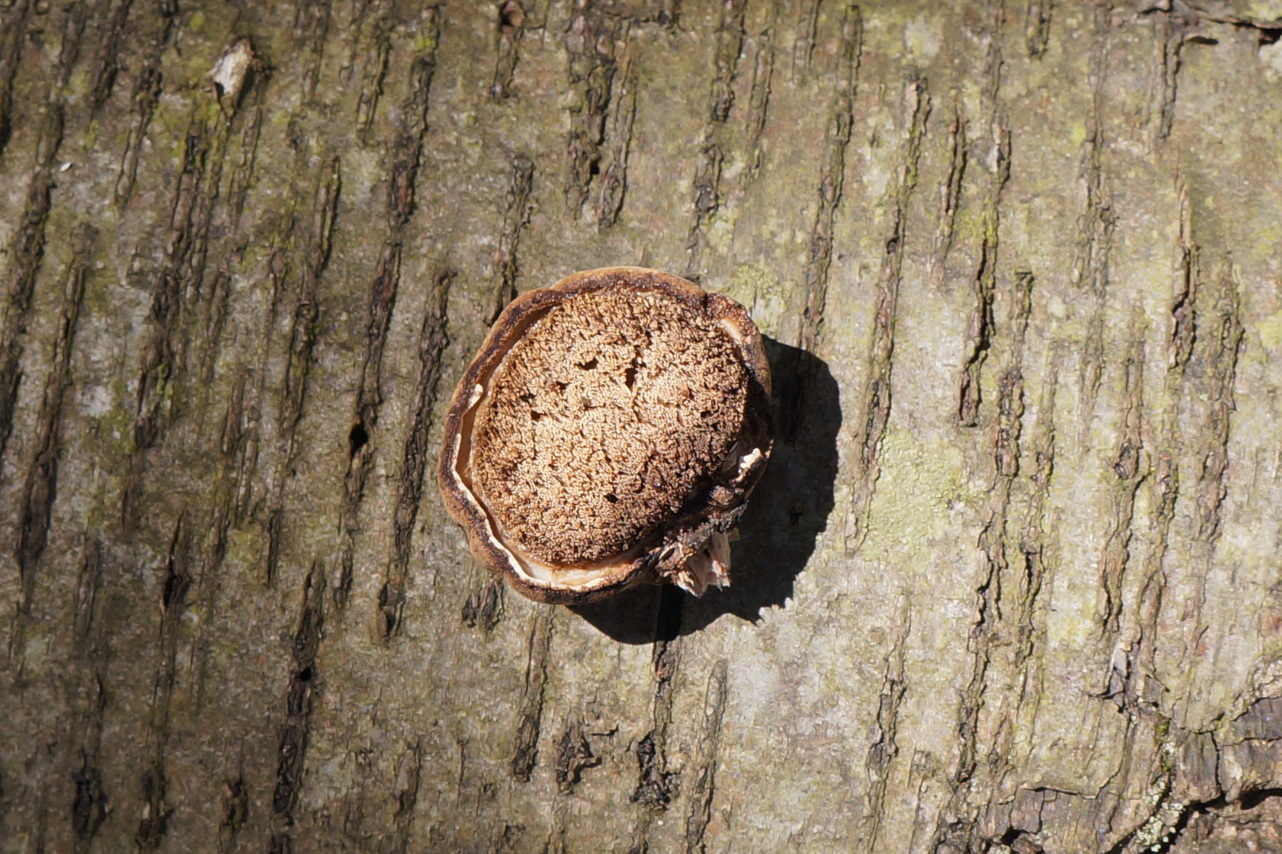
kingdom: Fungi
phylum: Basidiomycota
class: Agaricomycetes
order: Polyporales
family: Fomitopsidaceae
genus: Fomitopsis
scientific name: Fomitopsis betulina
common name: Birch polypore
